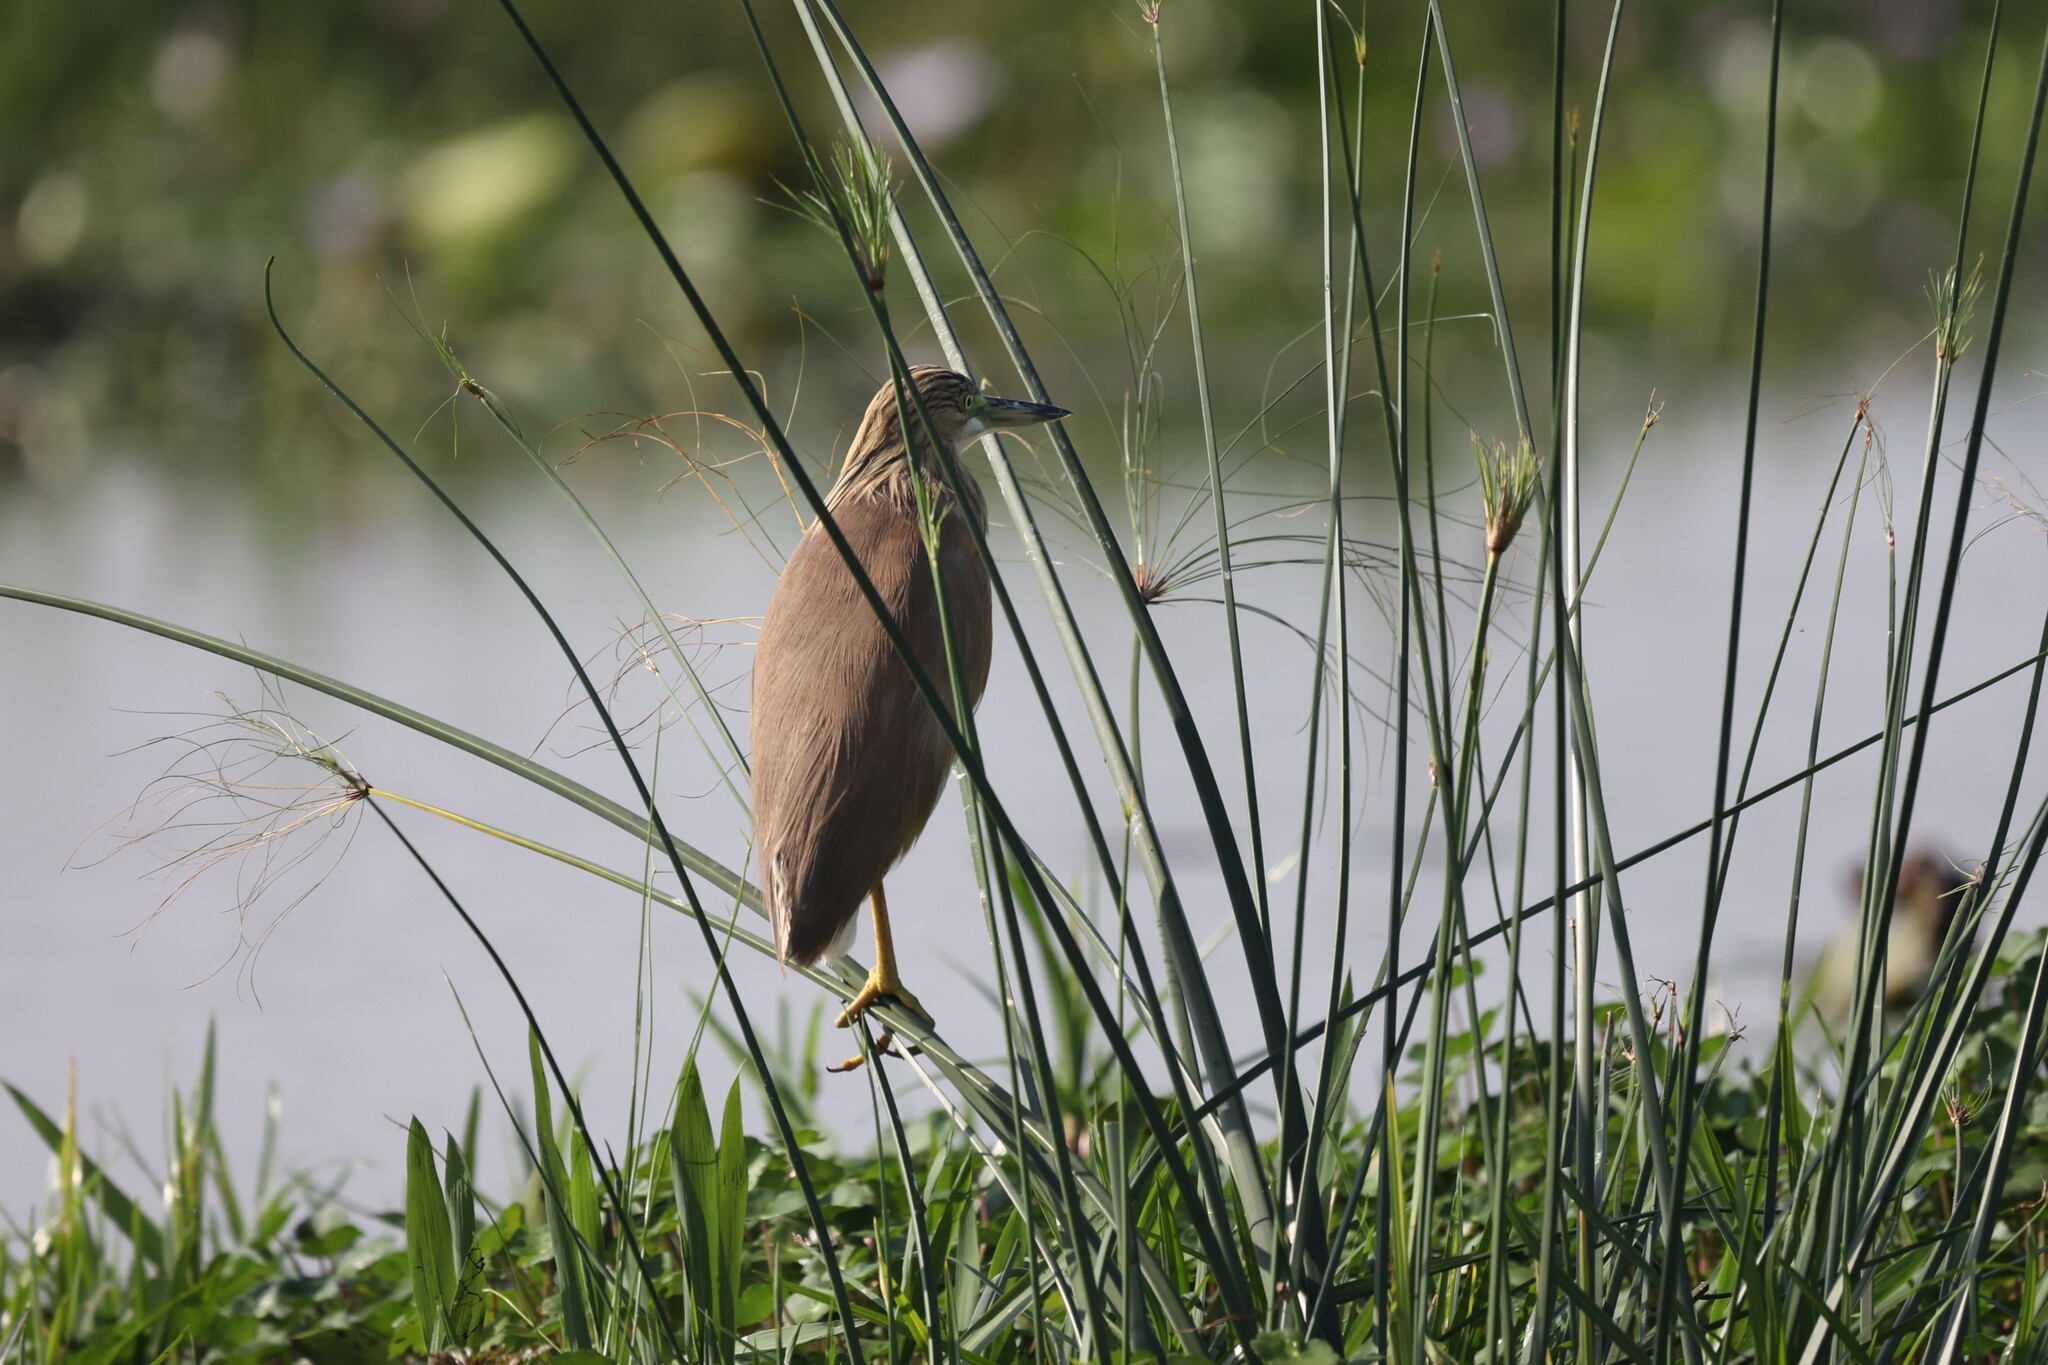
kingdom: Animalia
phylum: Chordata
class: Aves
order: Pelecaniformes
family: Ardeidae
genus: Ardeola
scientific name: Ardeola ralloides
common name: Squacco heron
